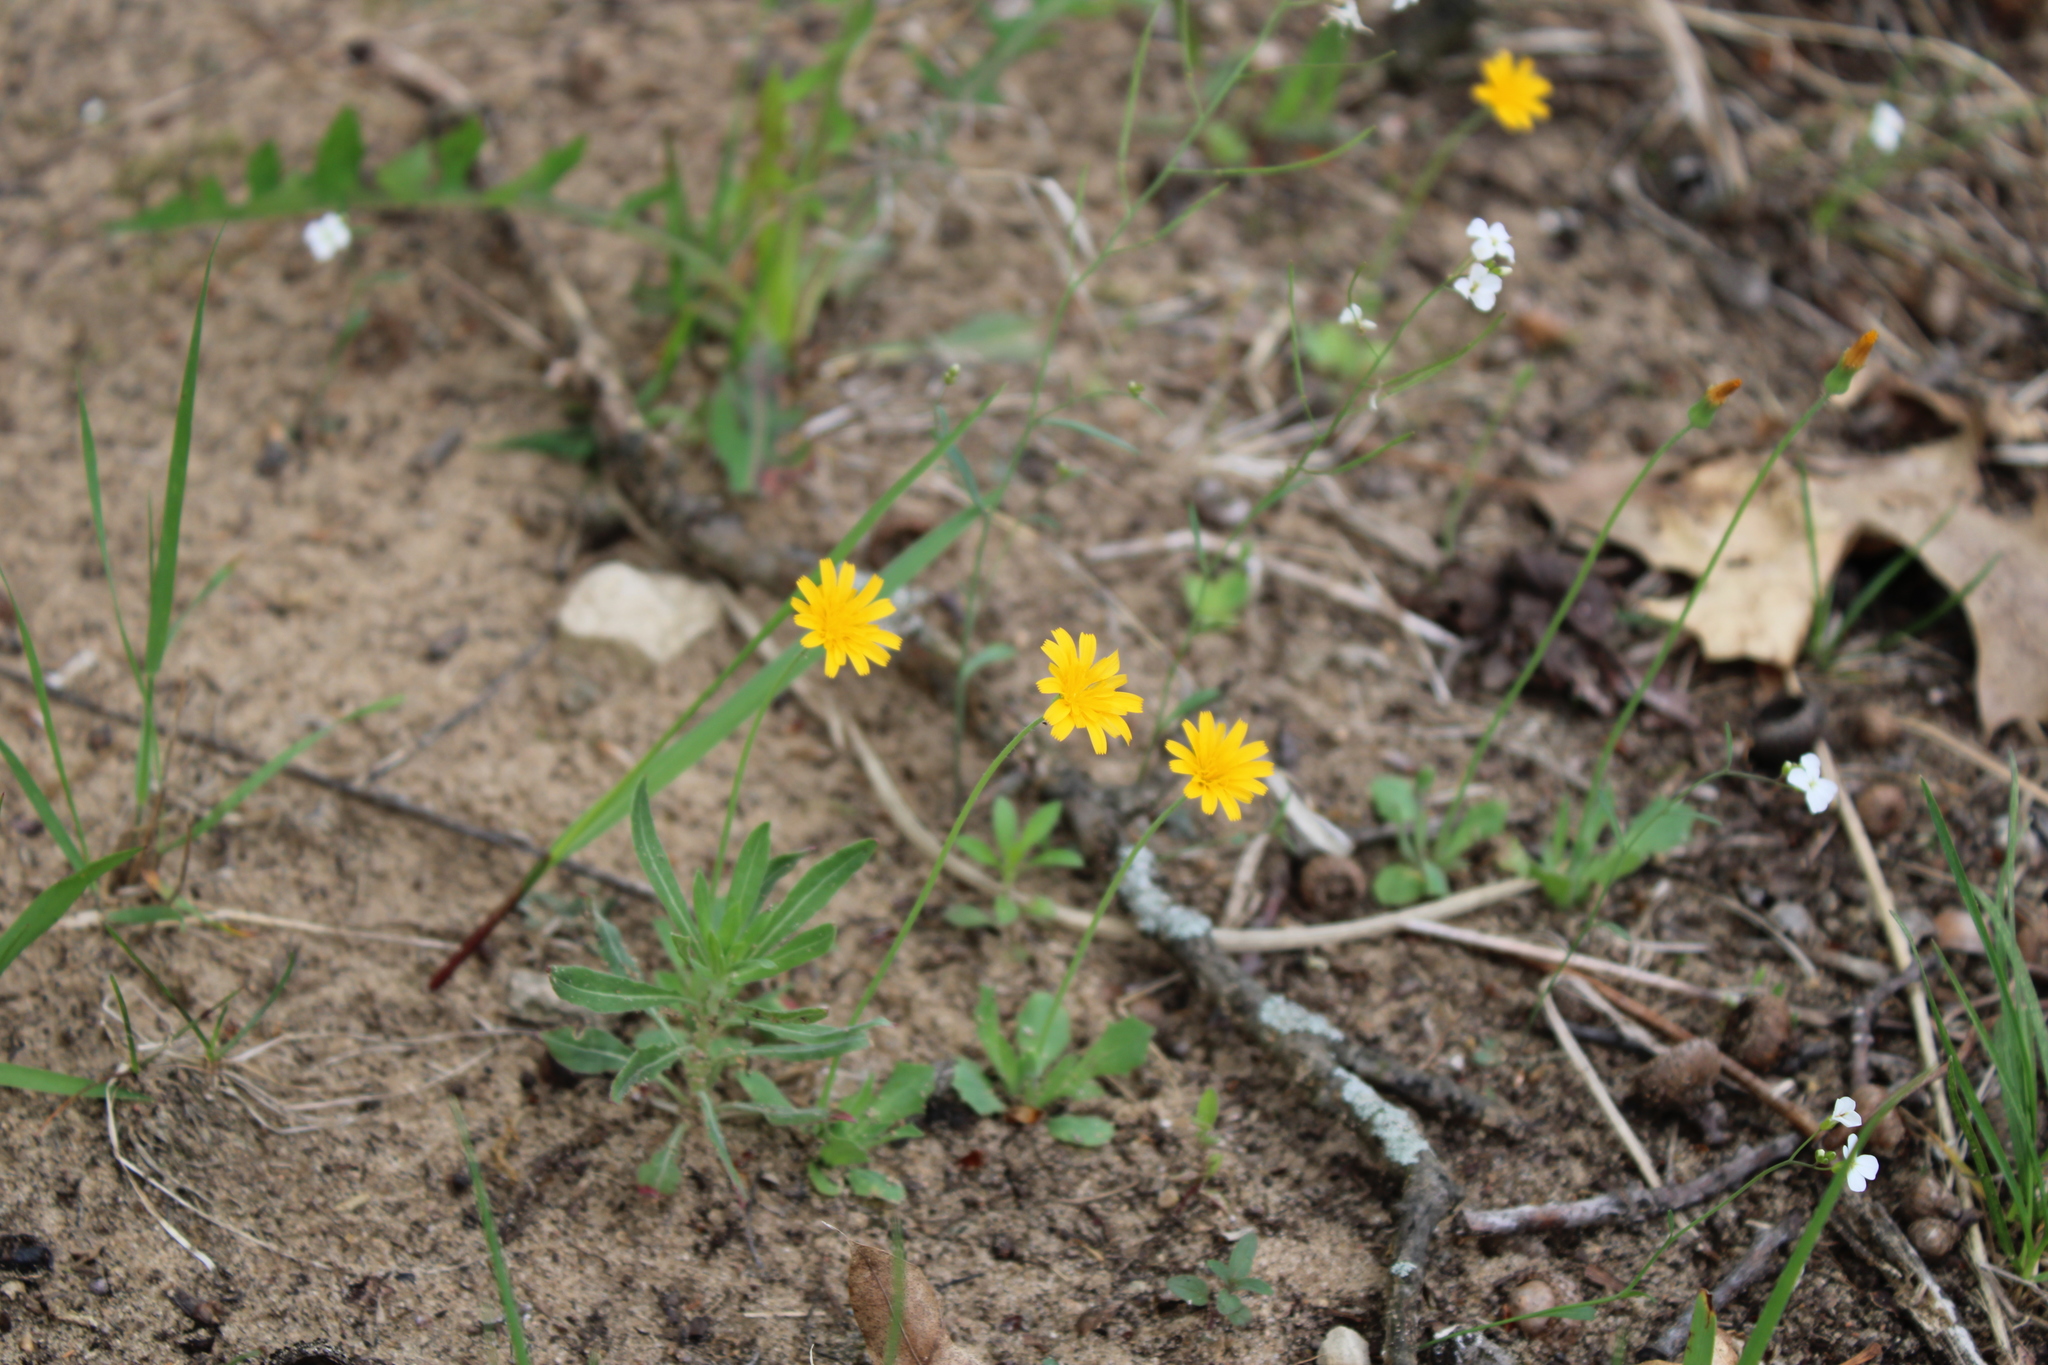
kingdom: Plantae
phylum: Tracheophyta
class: Magnoliopsida
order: Asterales
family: Asteraceae
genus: Krigia
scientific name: Krigia virginica
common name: Virginia dwarf-dandelion
